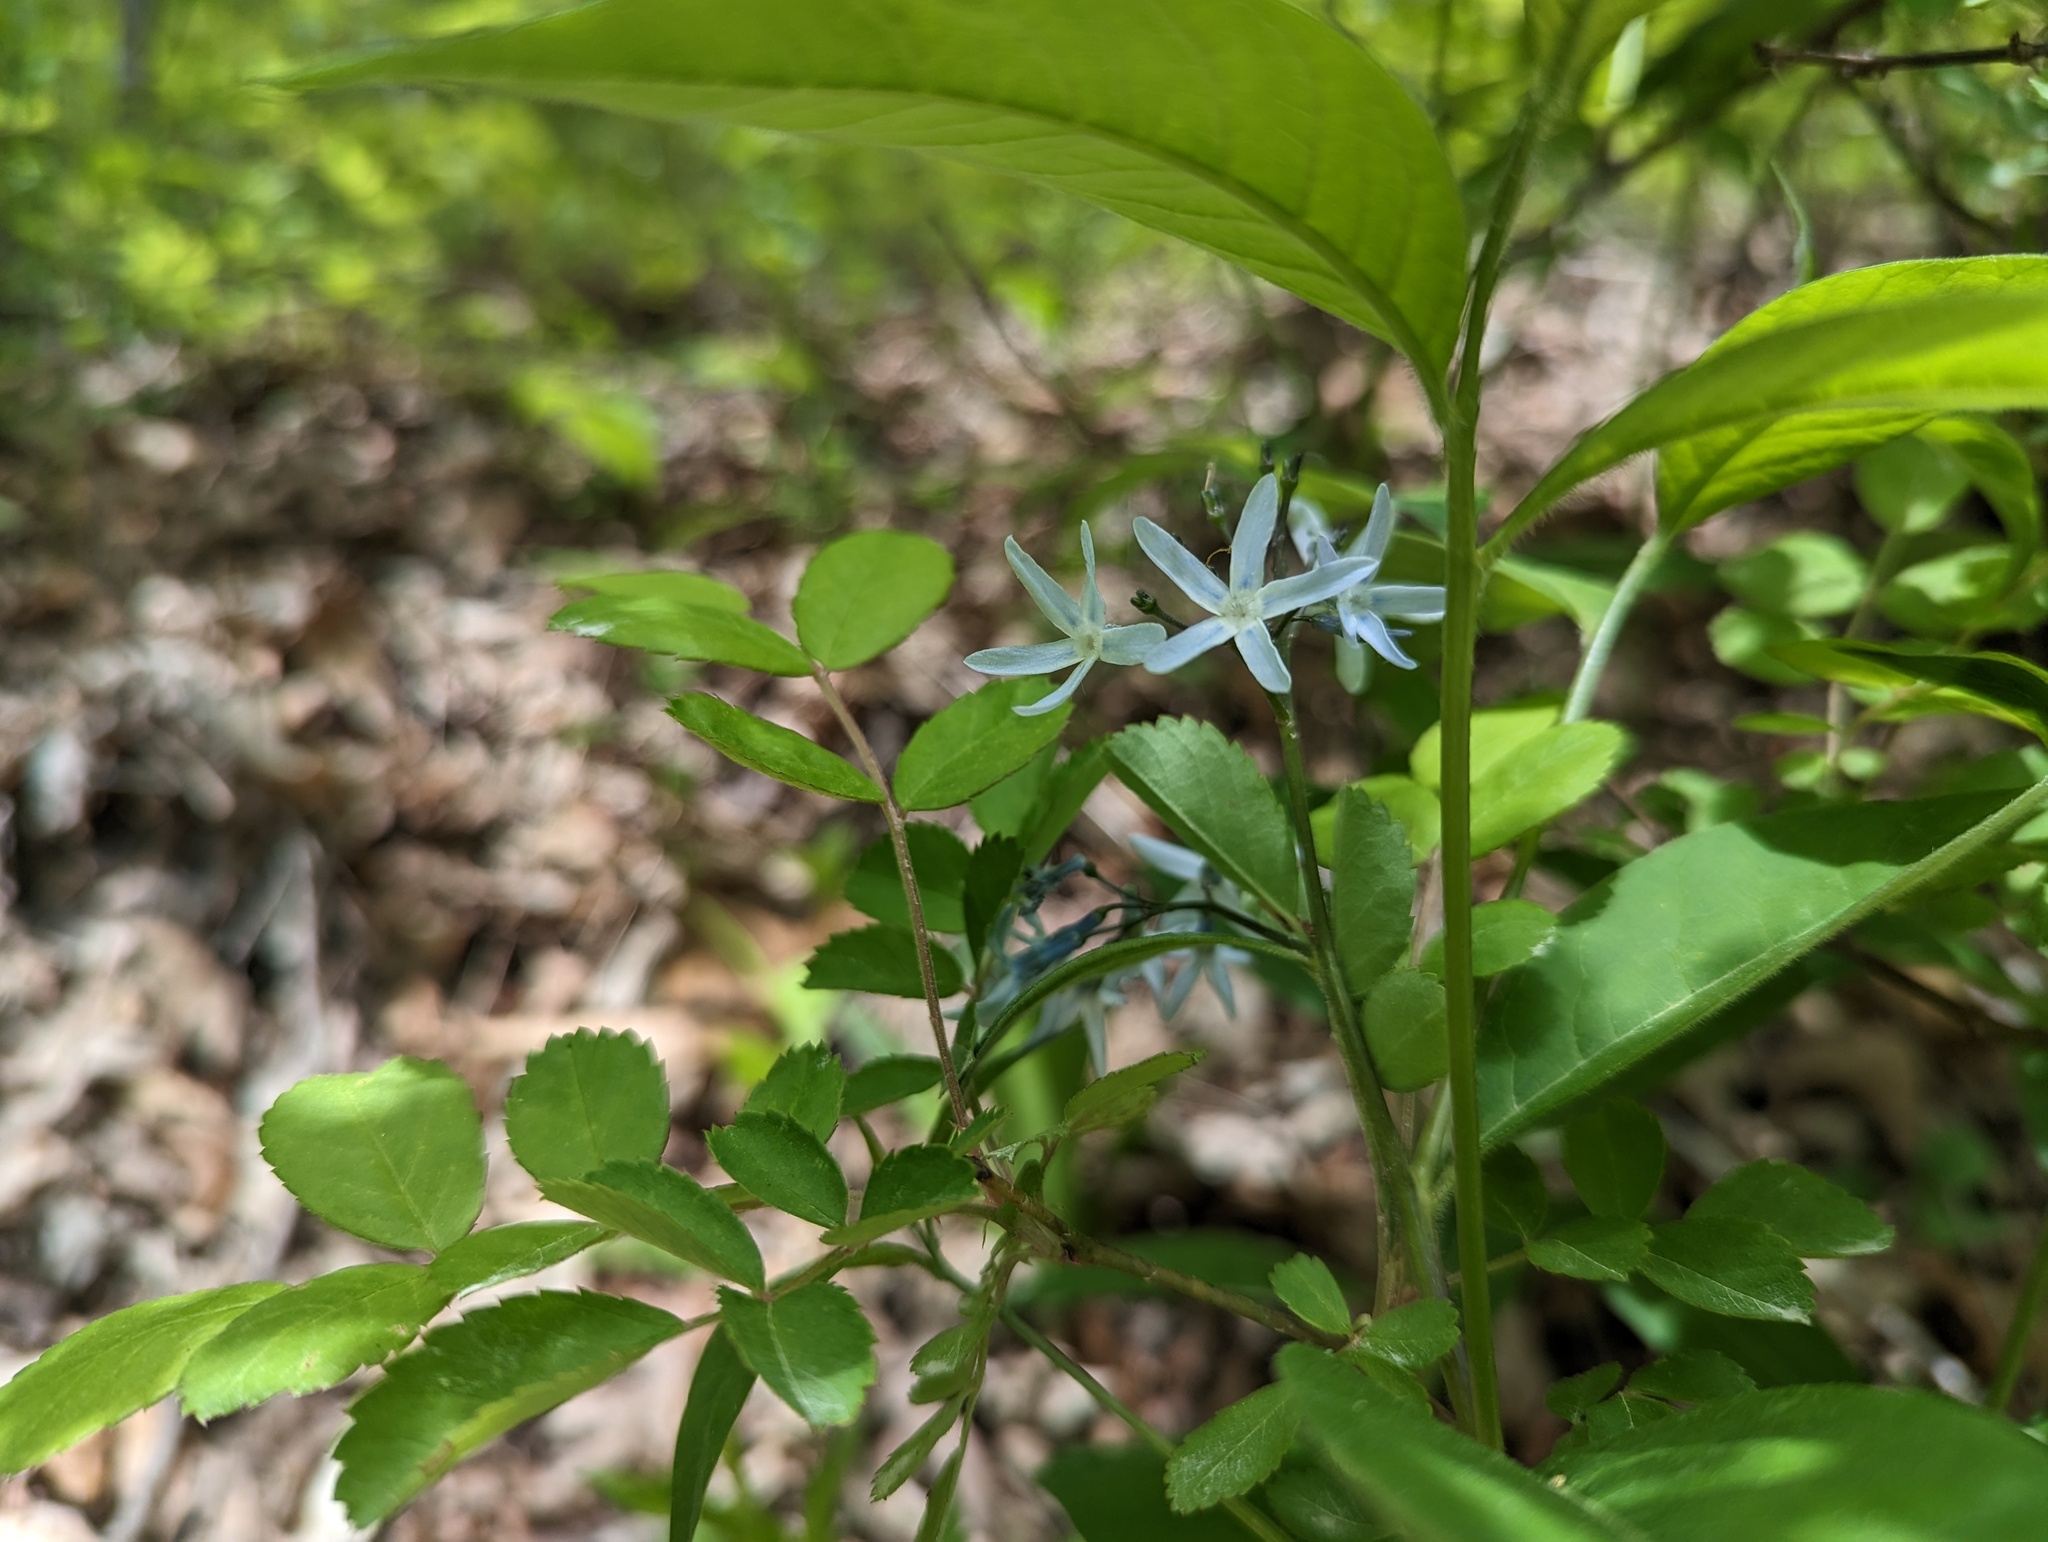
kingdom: Plantae
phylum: Tracheophyta
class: Magnoliopsida
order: Gentianales
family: Apocynaceae
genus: Amsonia
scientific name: Amsonia tabernaemontana
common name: Texas-star
